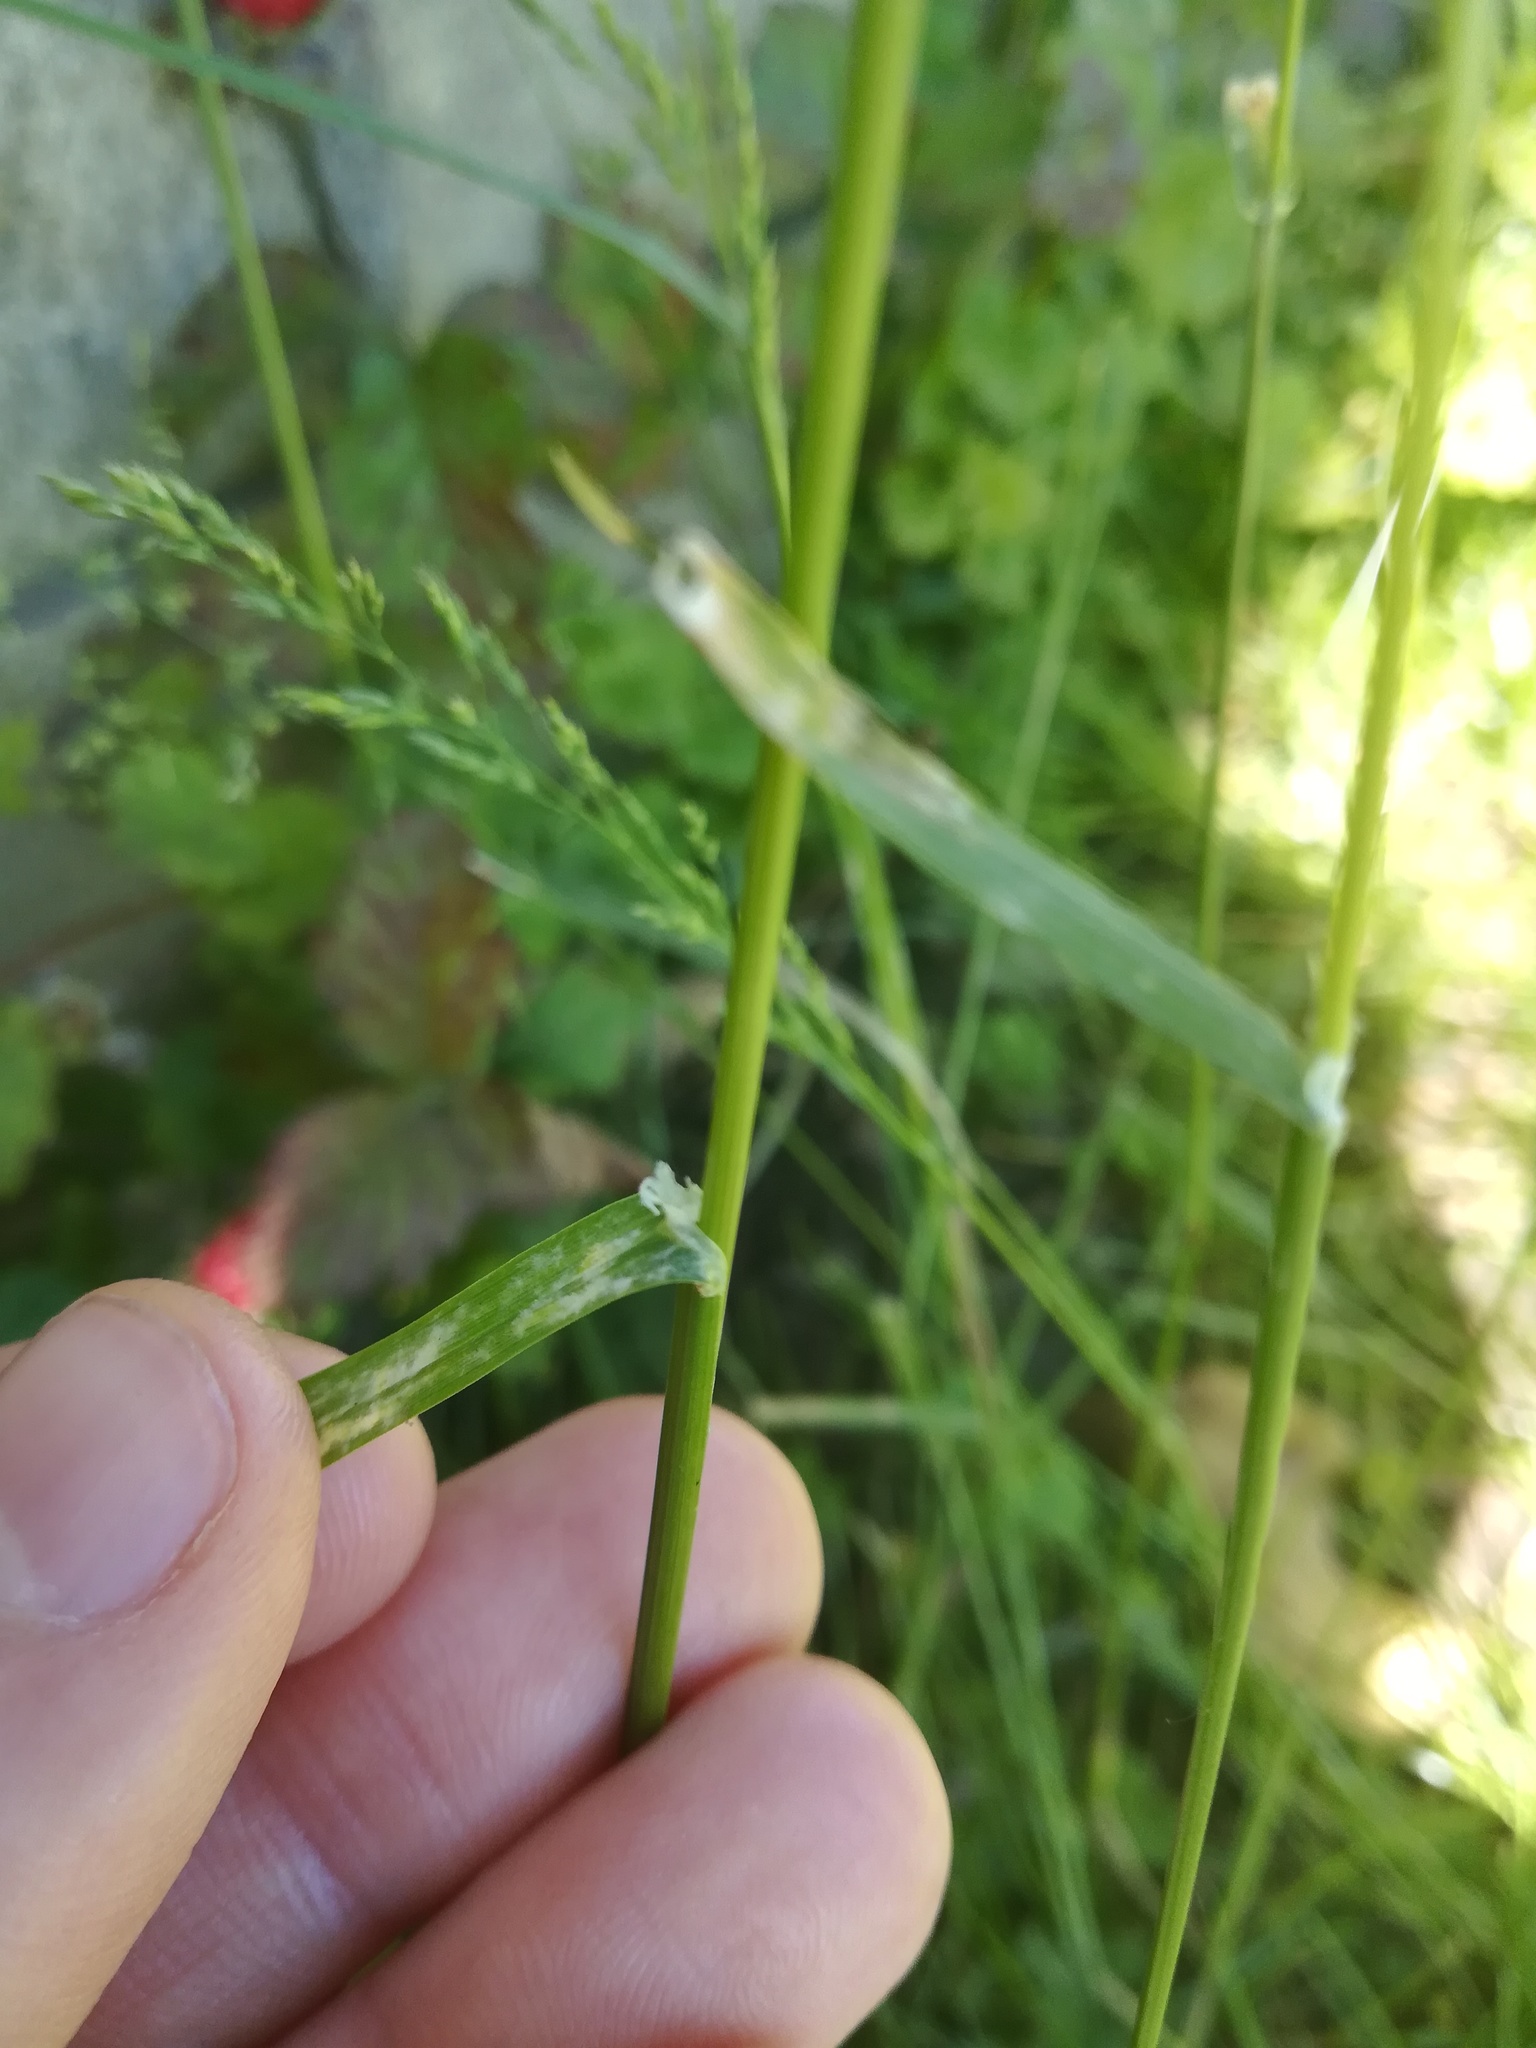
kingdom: Plantae
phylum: Tracheophyta
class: Liliopsida
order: Poales
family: Poaceae
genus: Poa
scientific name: Poa pratensis
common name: Kentucky bluegrass
